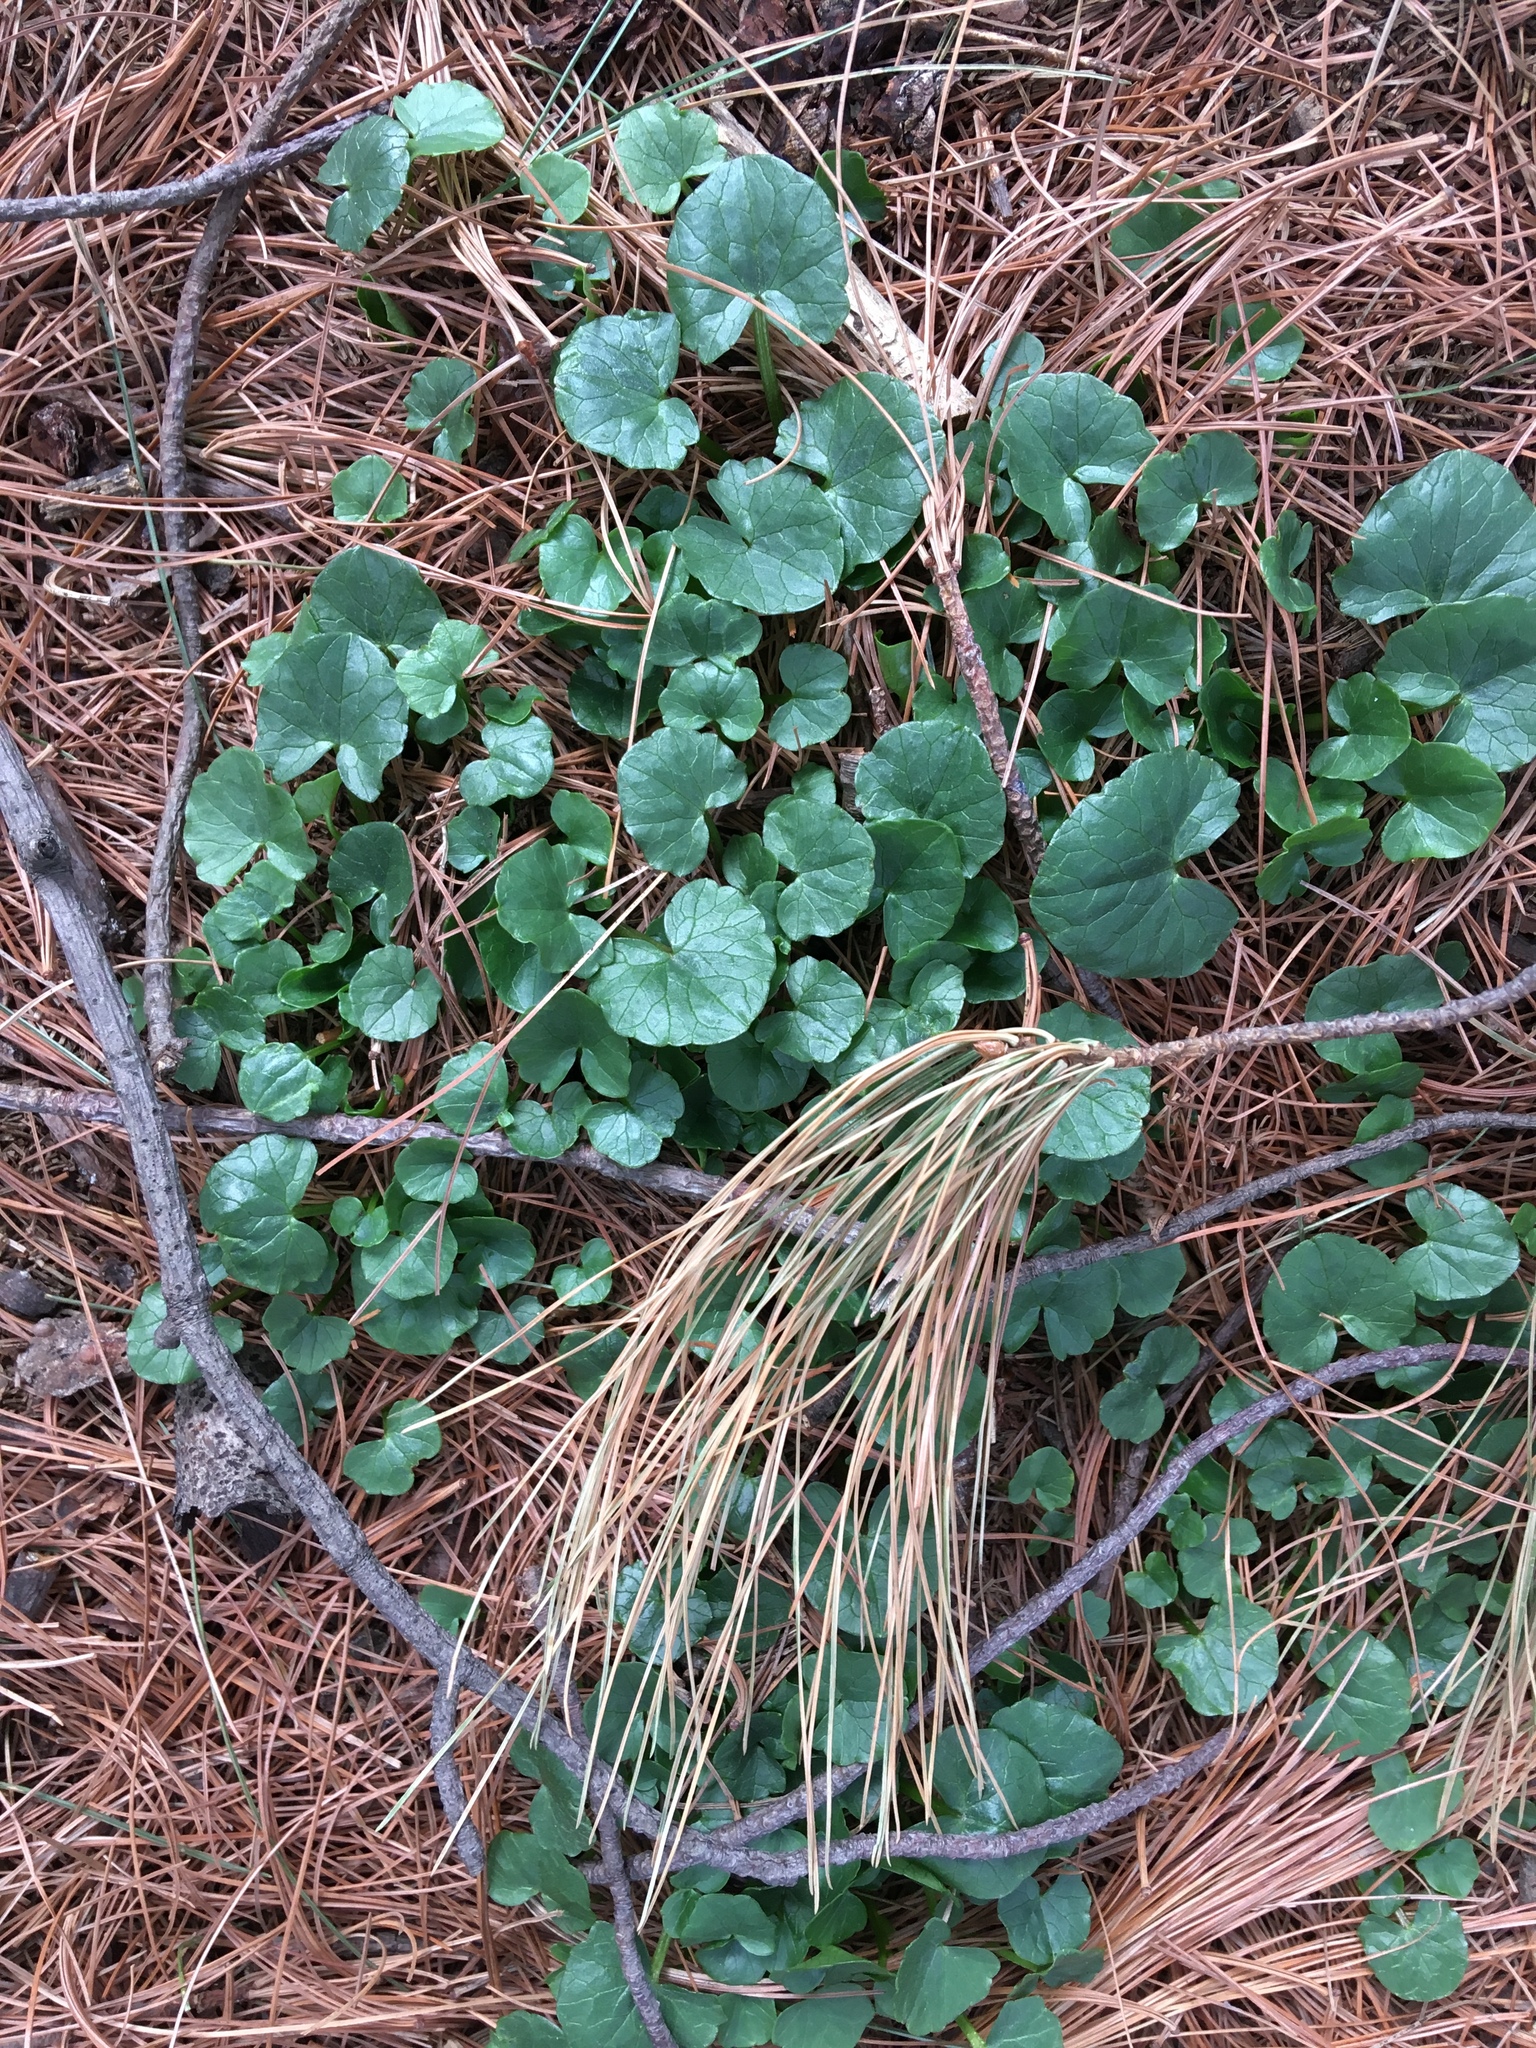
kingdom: Plantae
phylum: Tracheophyta
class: Magnoliopsida
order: Ranunculales
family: Ranunculaceae
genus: Ficaria
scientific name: Ficaria verna
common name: Lesser celandine
